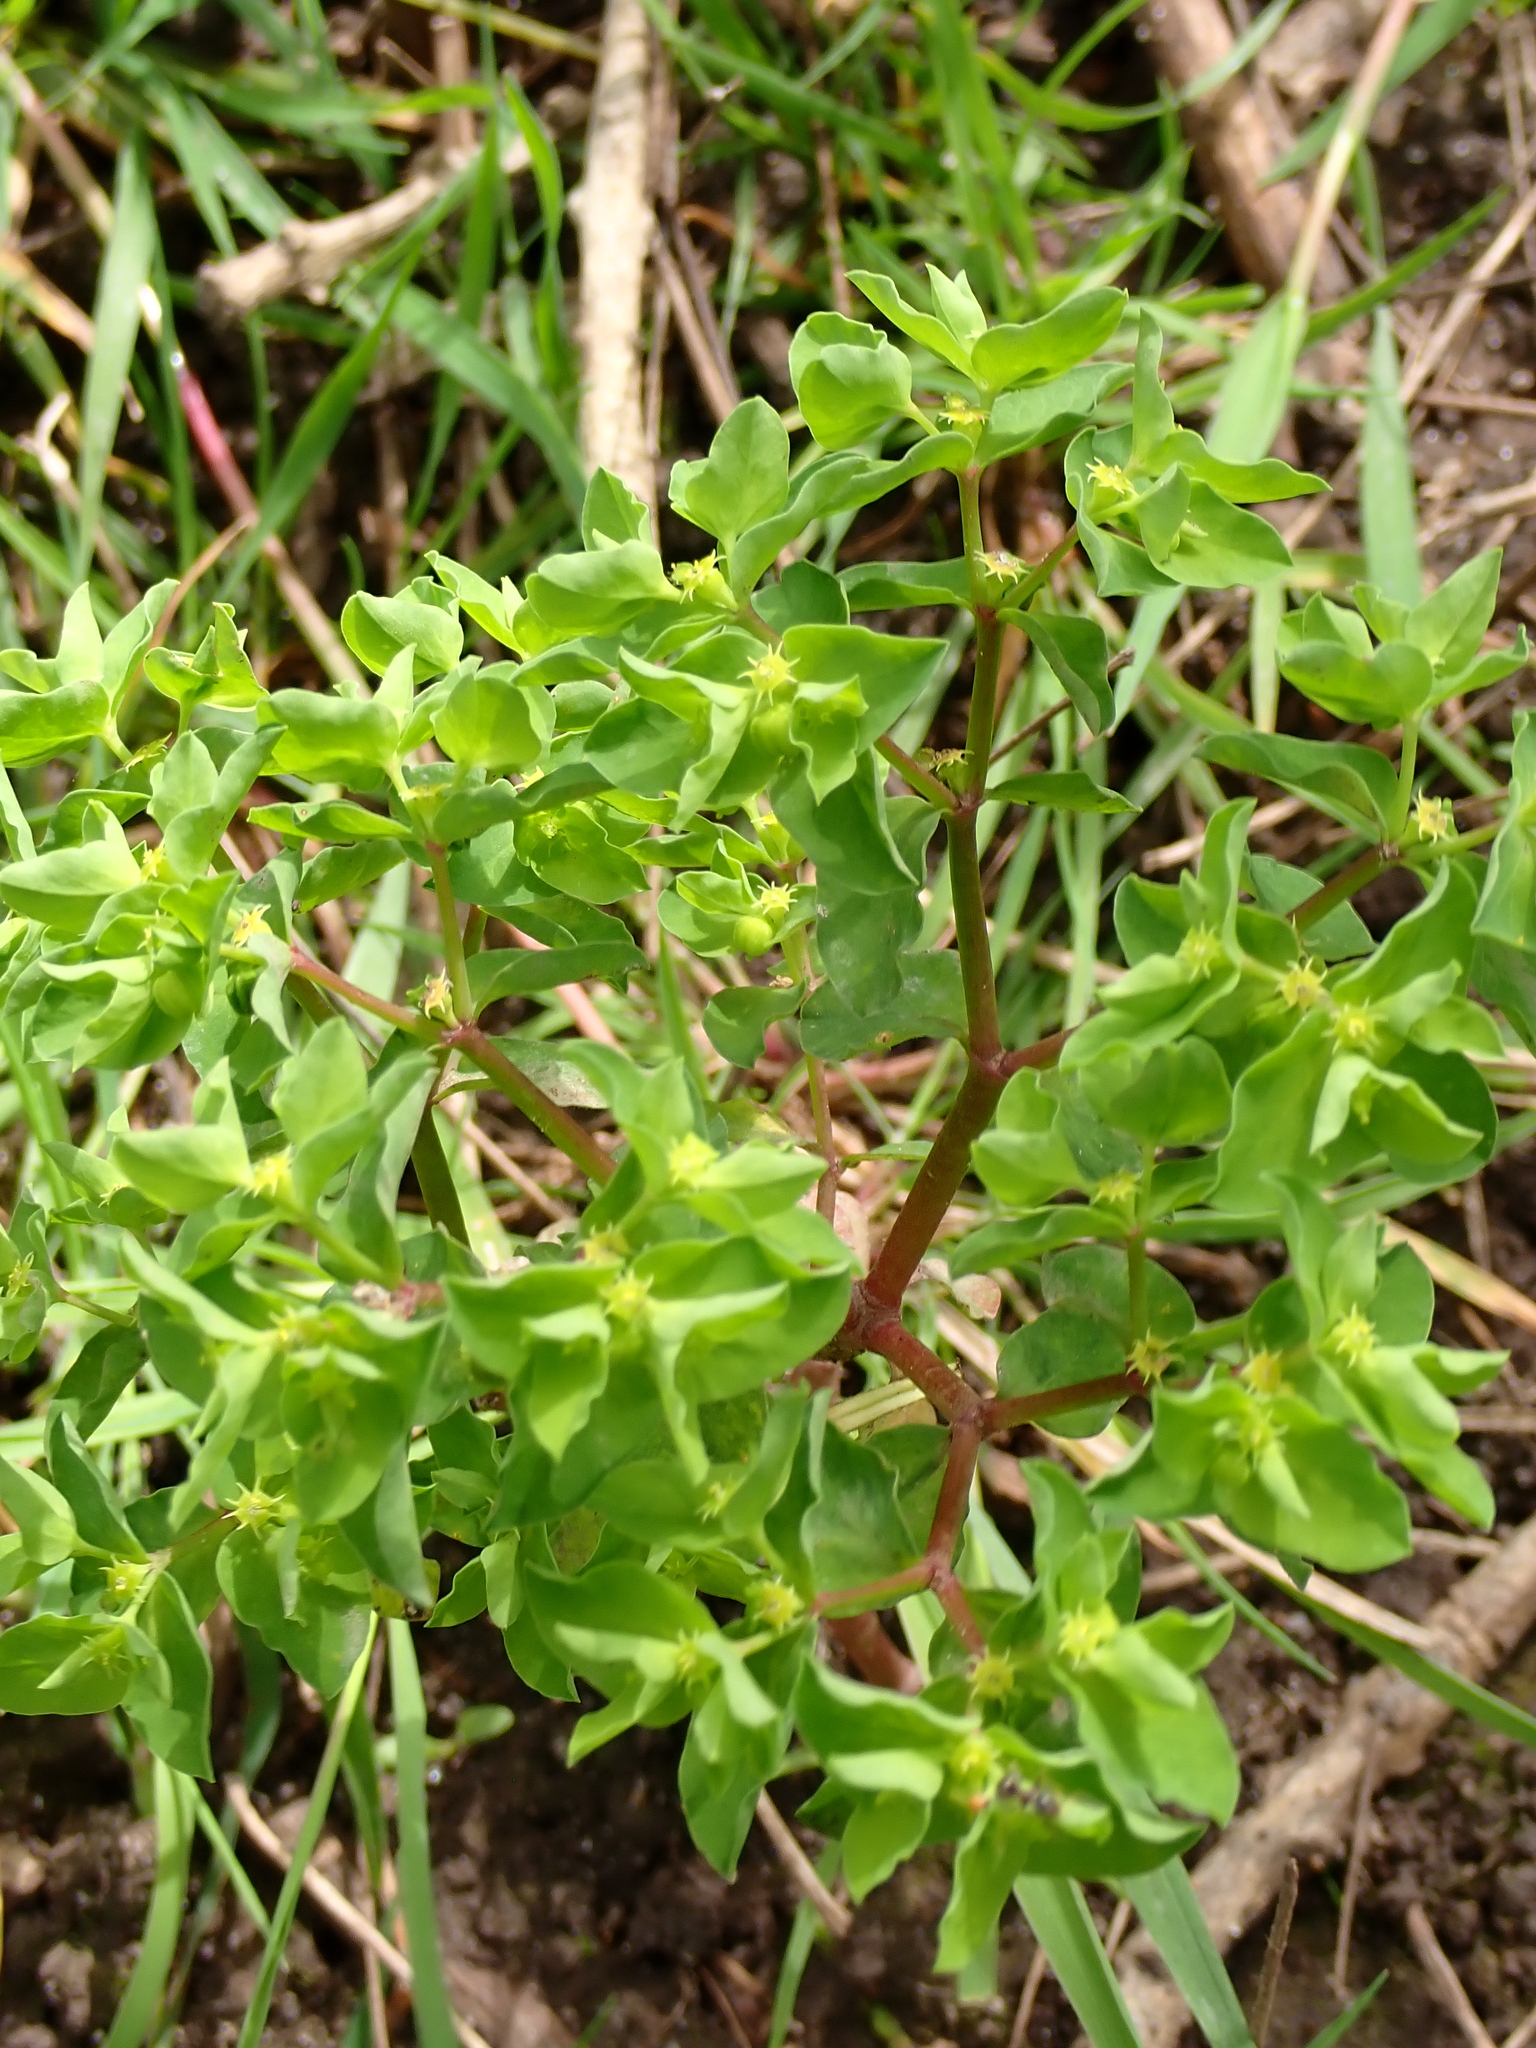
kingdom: Plantae
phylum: Tracheophyta
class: Magnoliopsida
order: Malpighiales
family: Euphorbiaceae
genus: Euphorbia
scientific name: Euphorbia peplus
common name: Petty spurge
